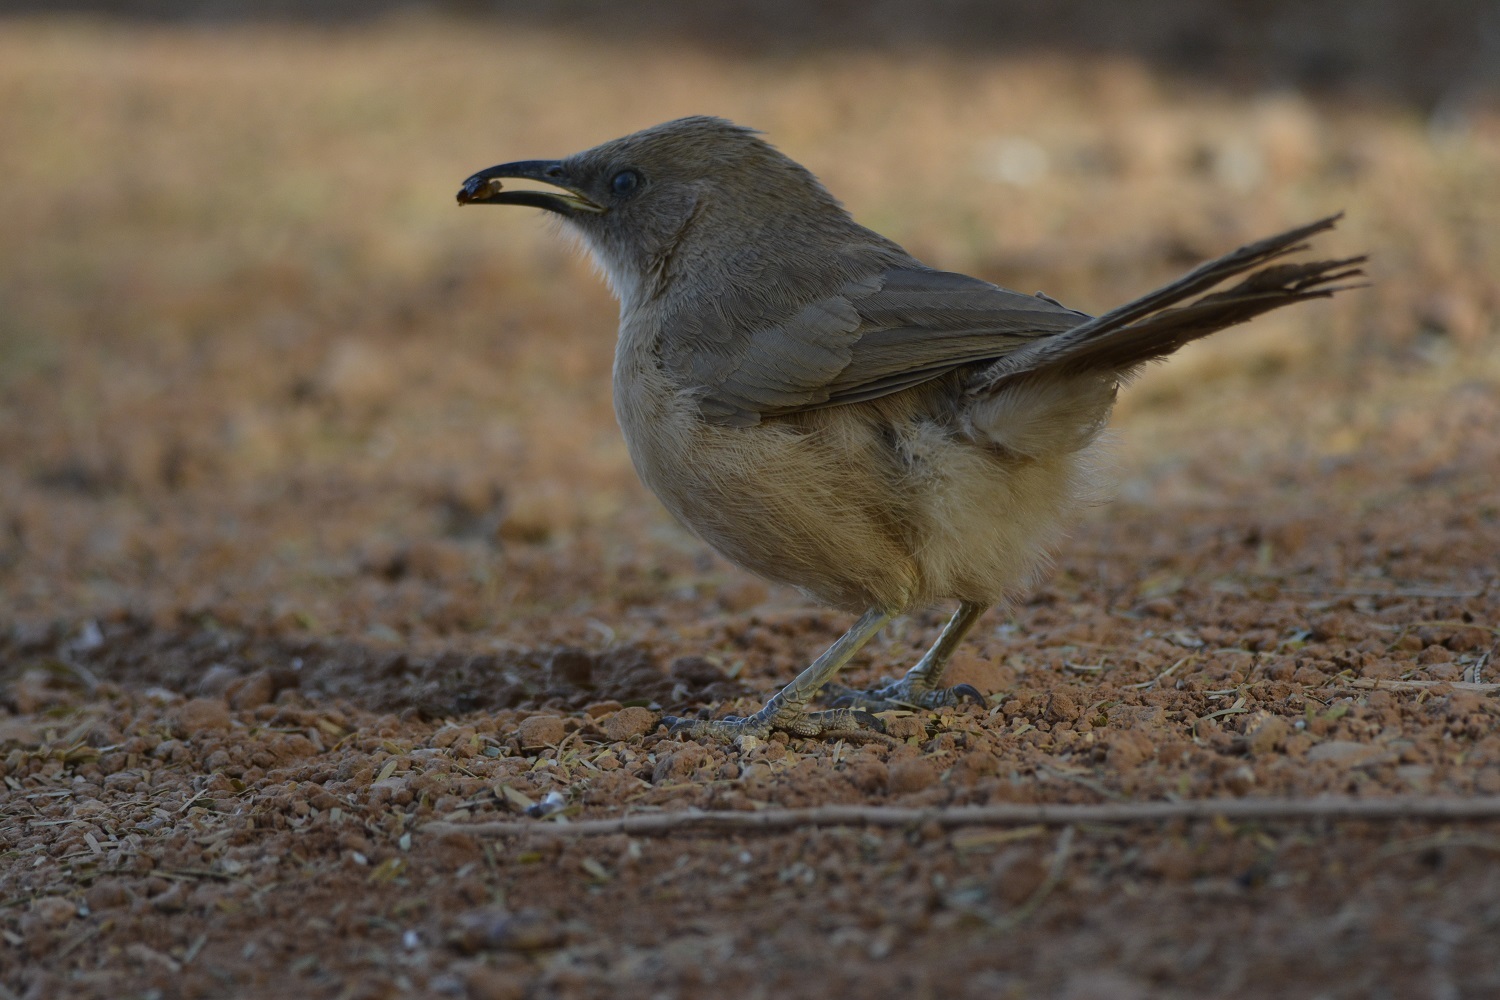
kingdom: Animalia
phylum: Chordata
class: Aves
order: Passeriformes
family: Leiothrichidae
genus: Turdoides
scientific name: Turdoides fulva
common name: Fulvous babbler
